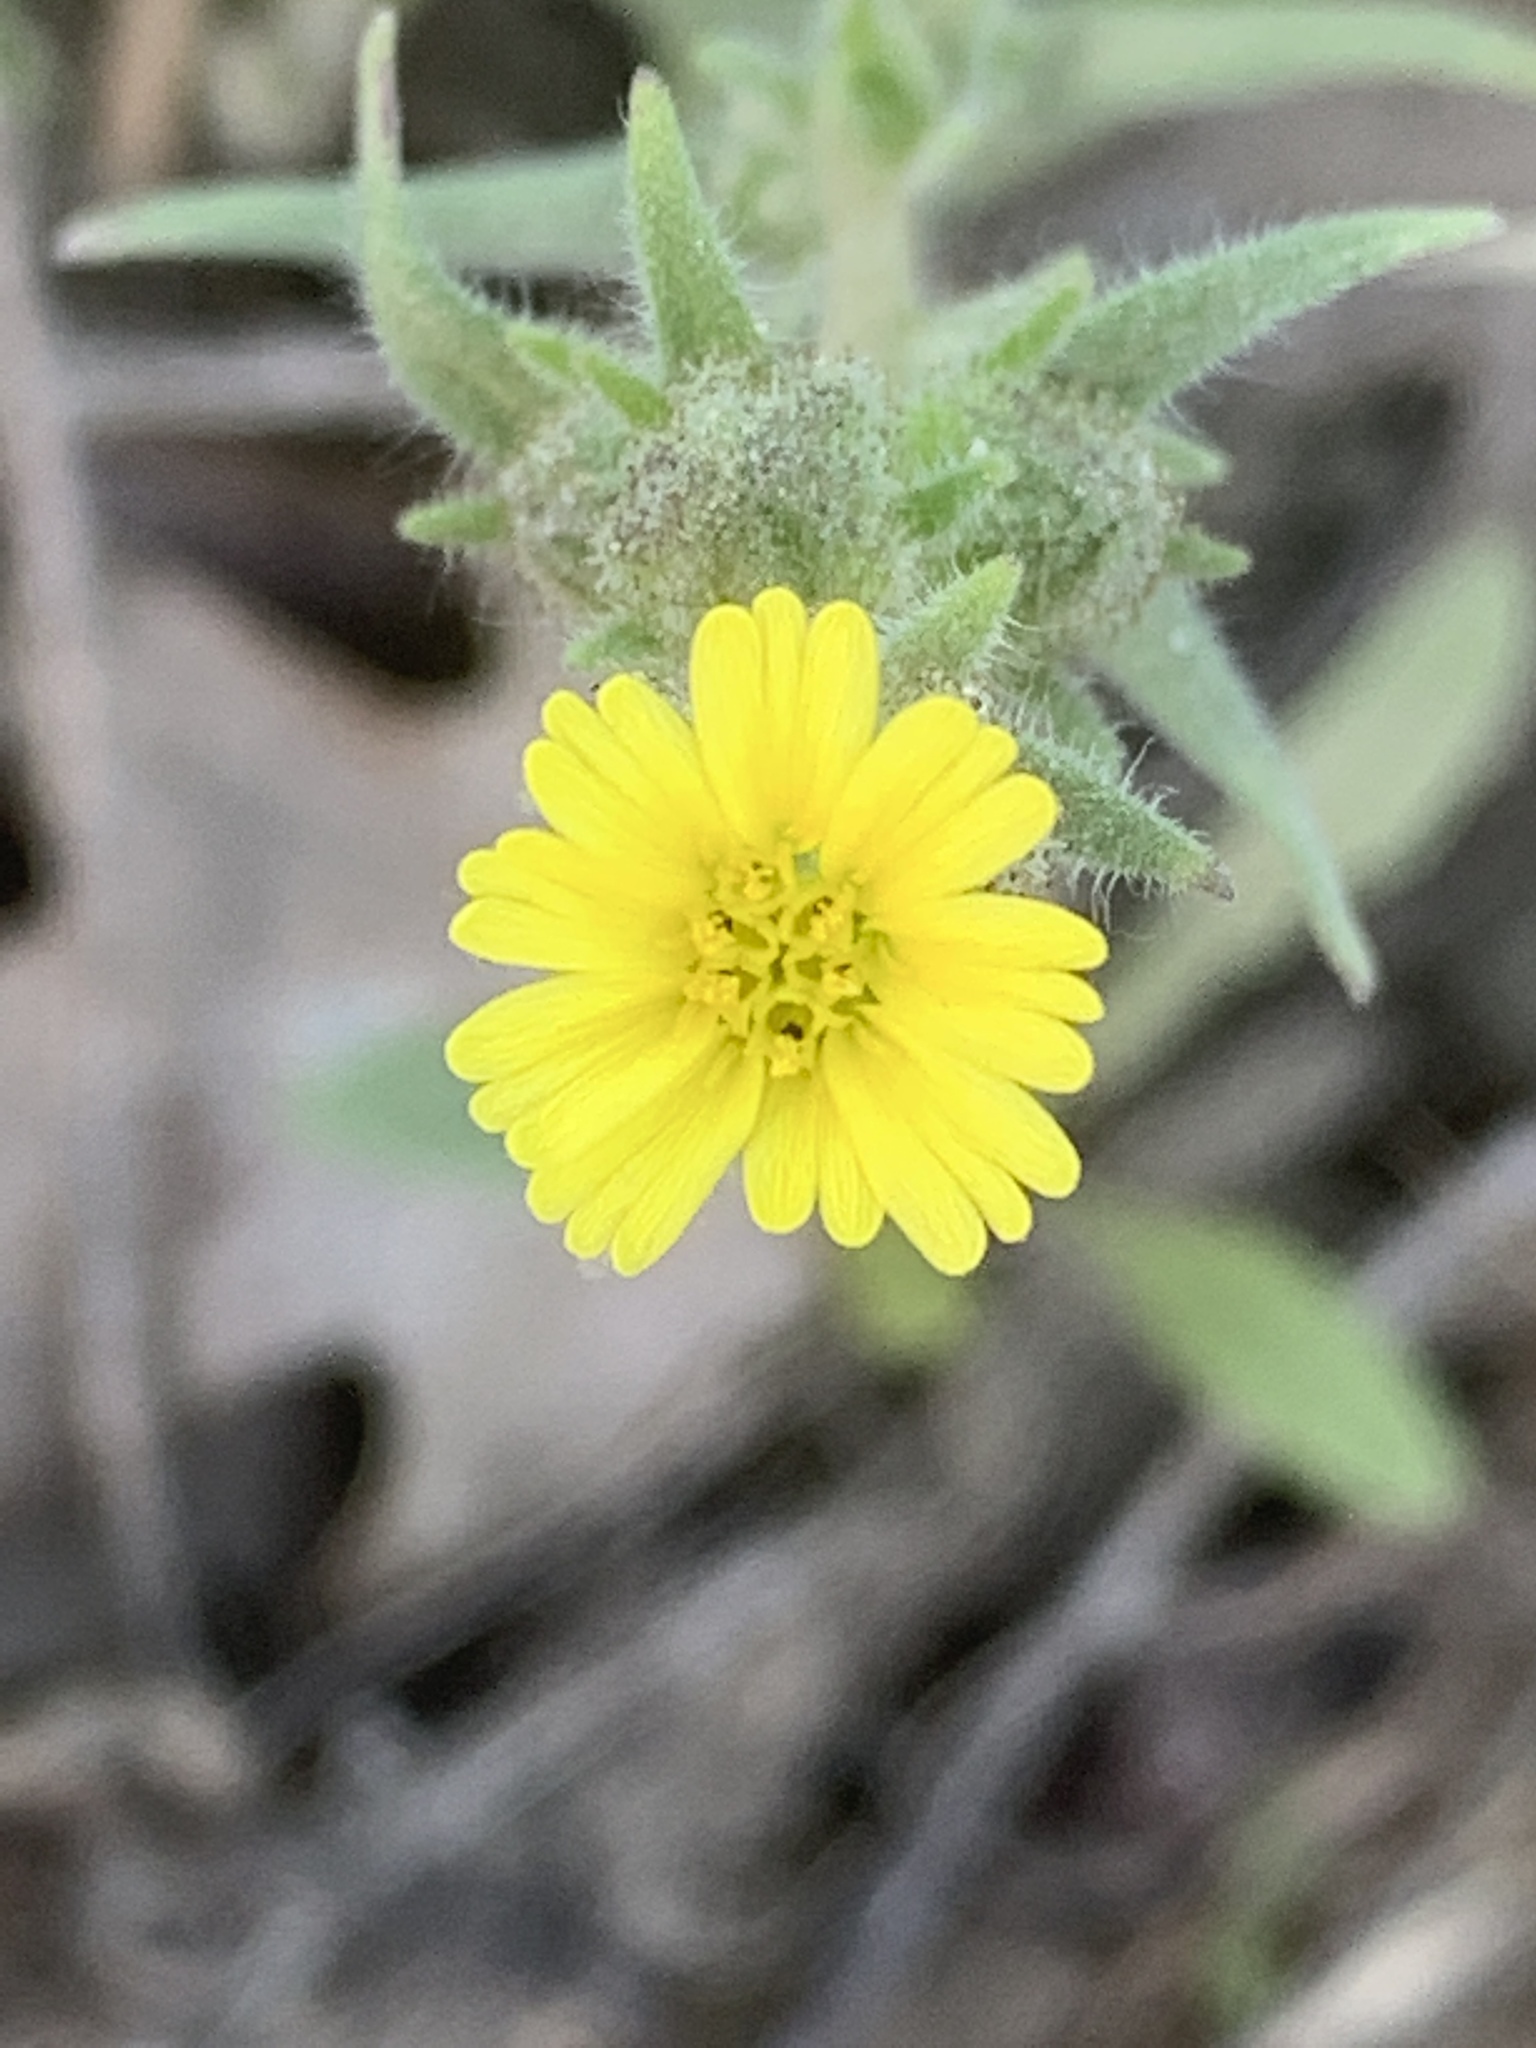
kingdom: Plantae
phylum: Tracheophyta
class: Magnoliopsida
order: Asterales
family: Asteraceae
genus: Madia
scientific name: Madia gracilis
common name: Grassy tarweed
